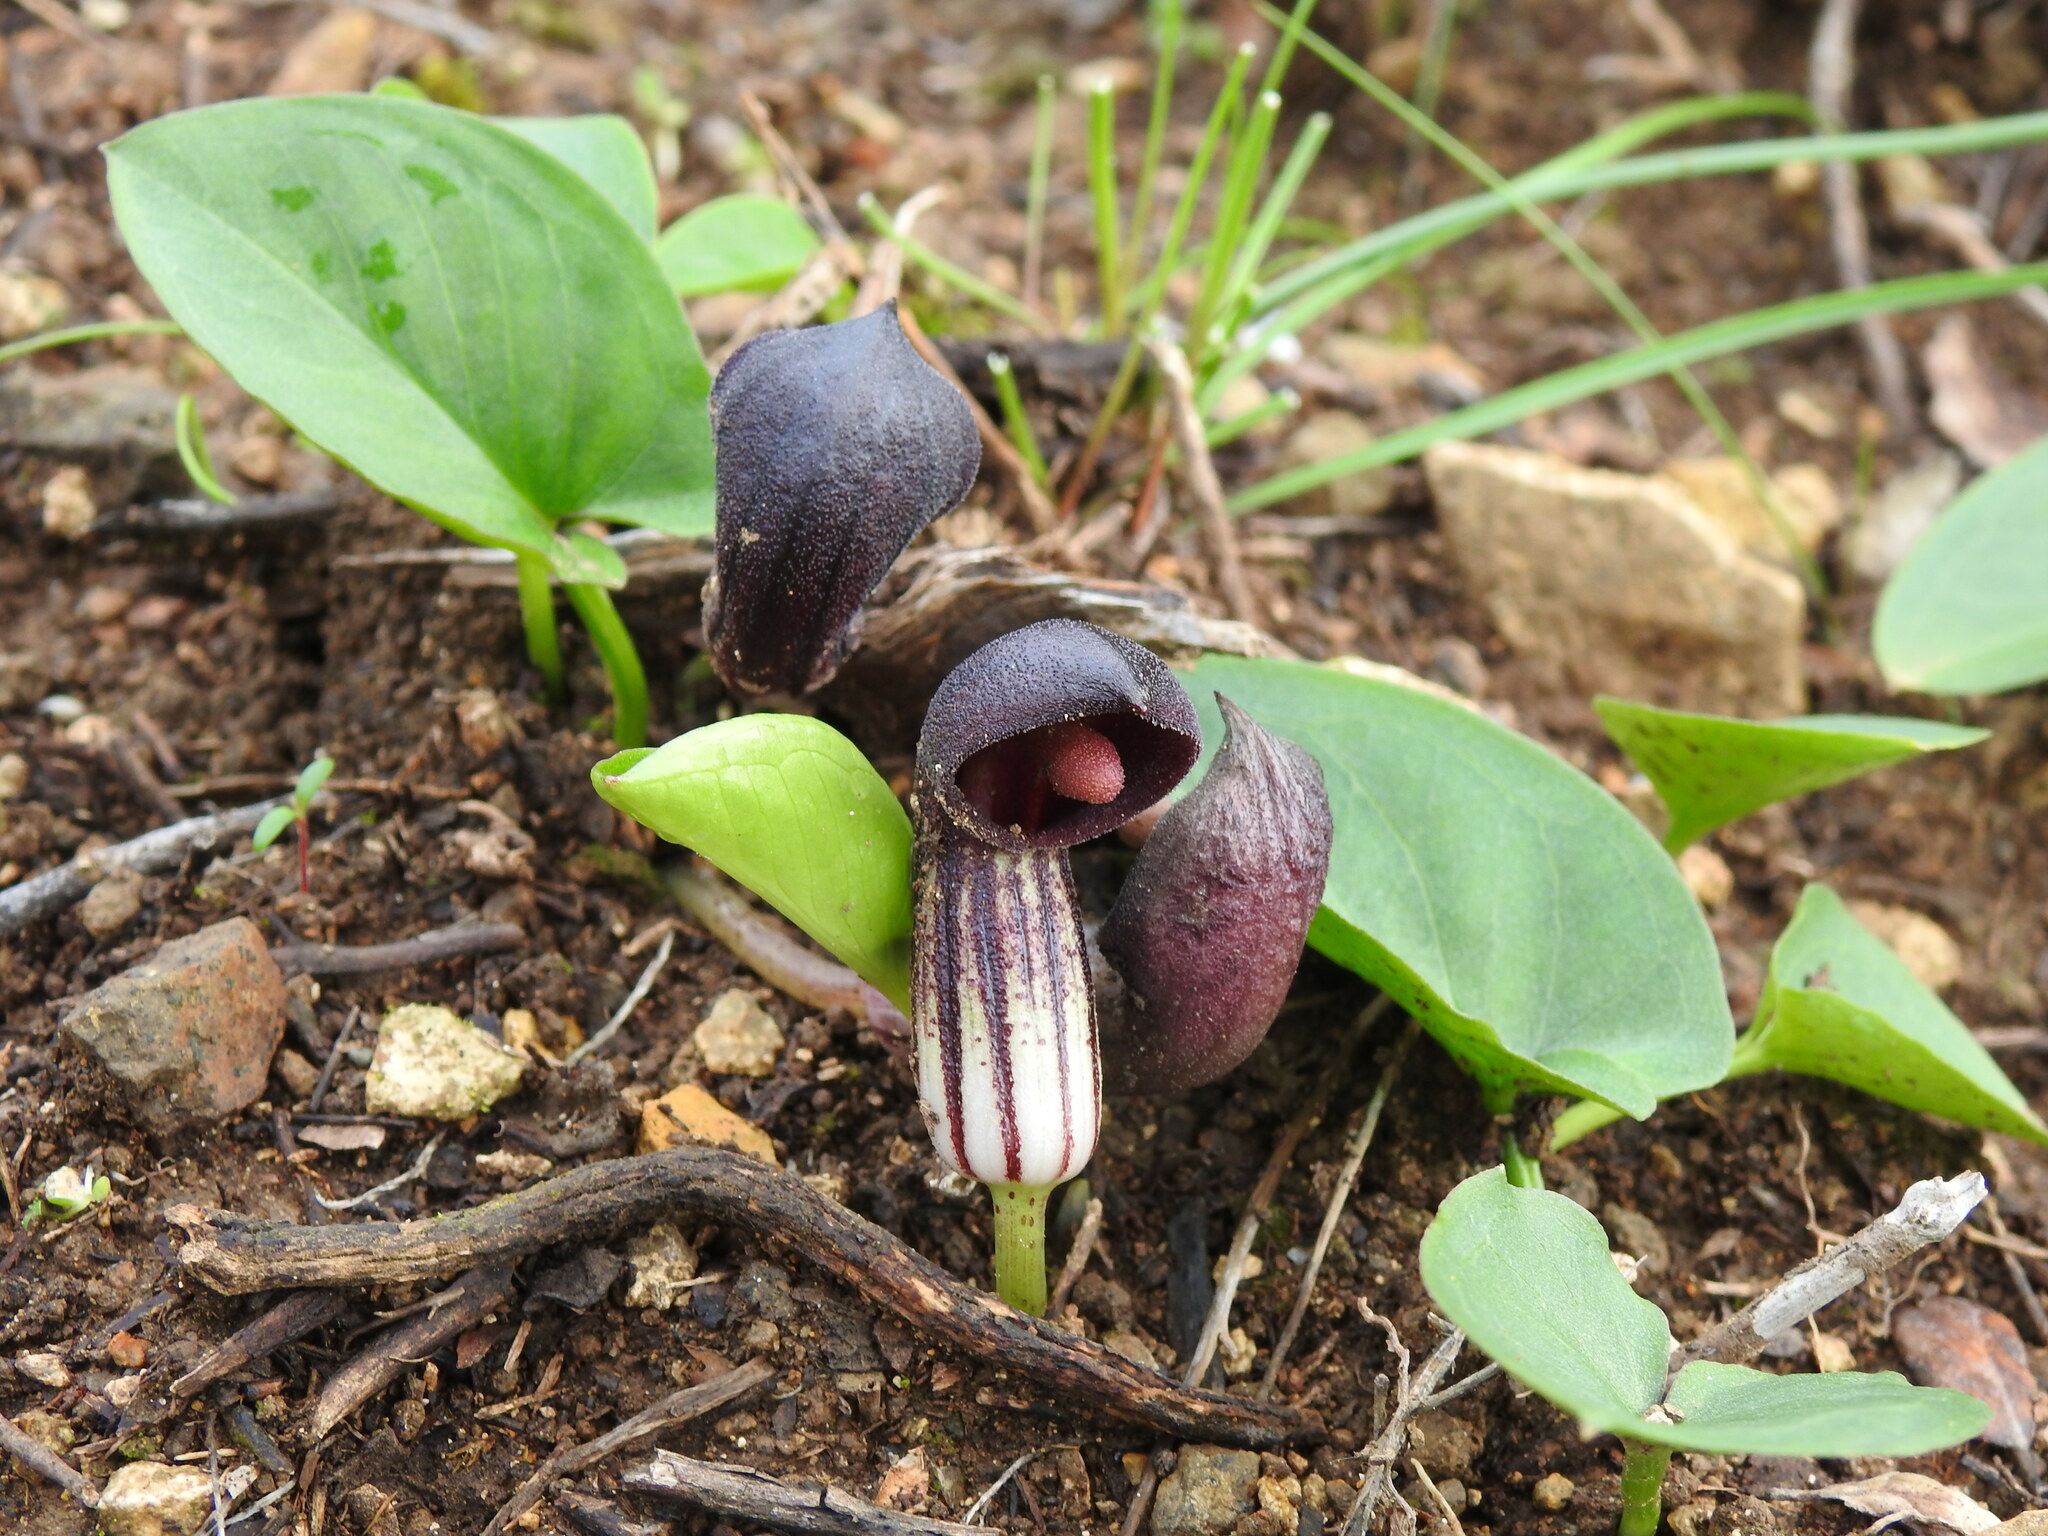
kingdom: Plantae
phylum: Tracheophyta
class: Liliopsida
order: Alismatales
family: Araceae
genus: Arisarum
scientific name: Arisarum simorrhinum
